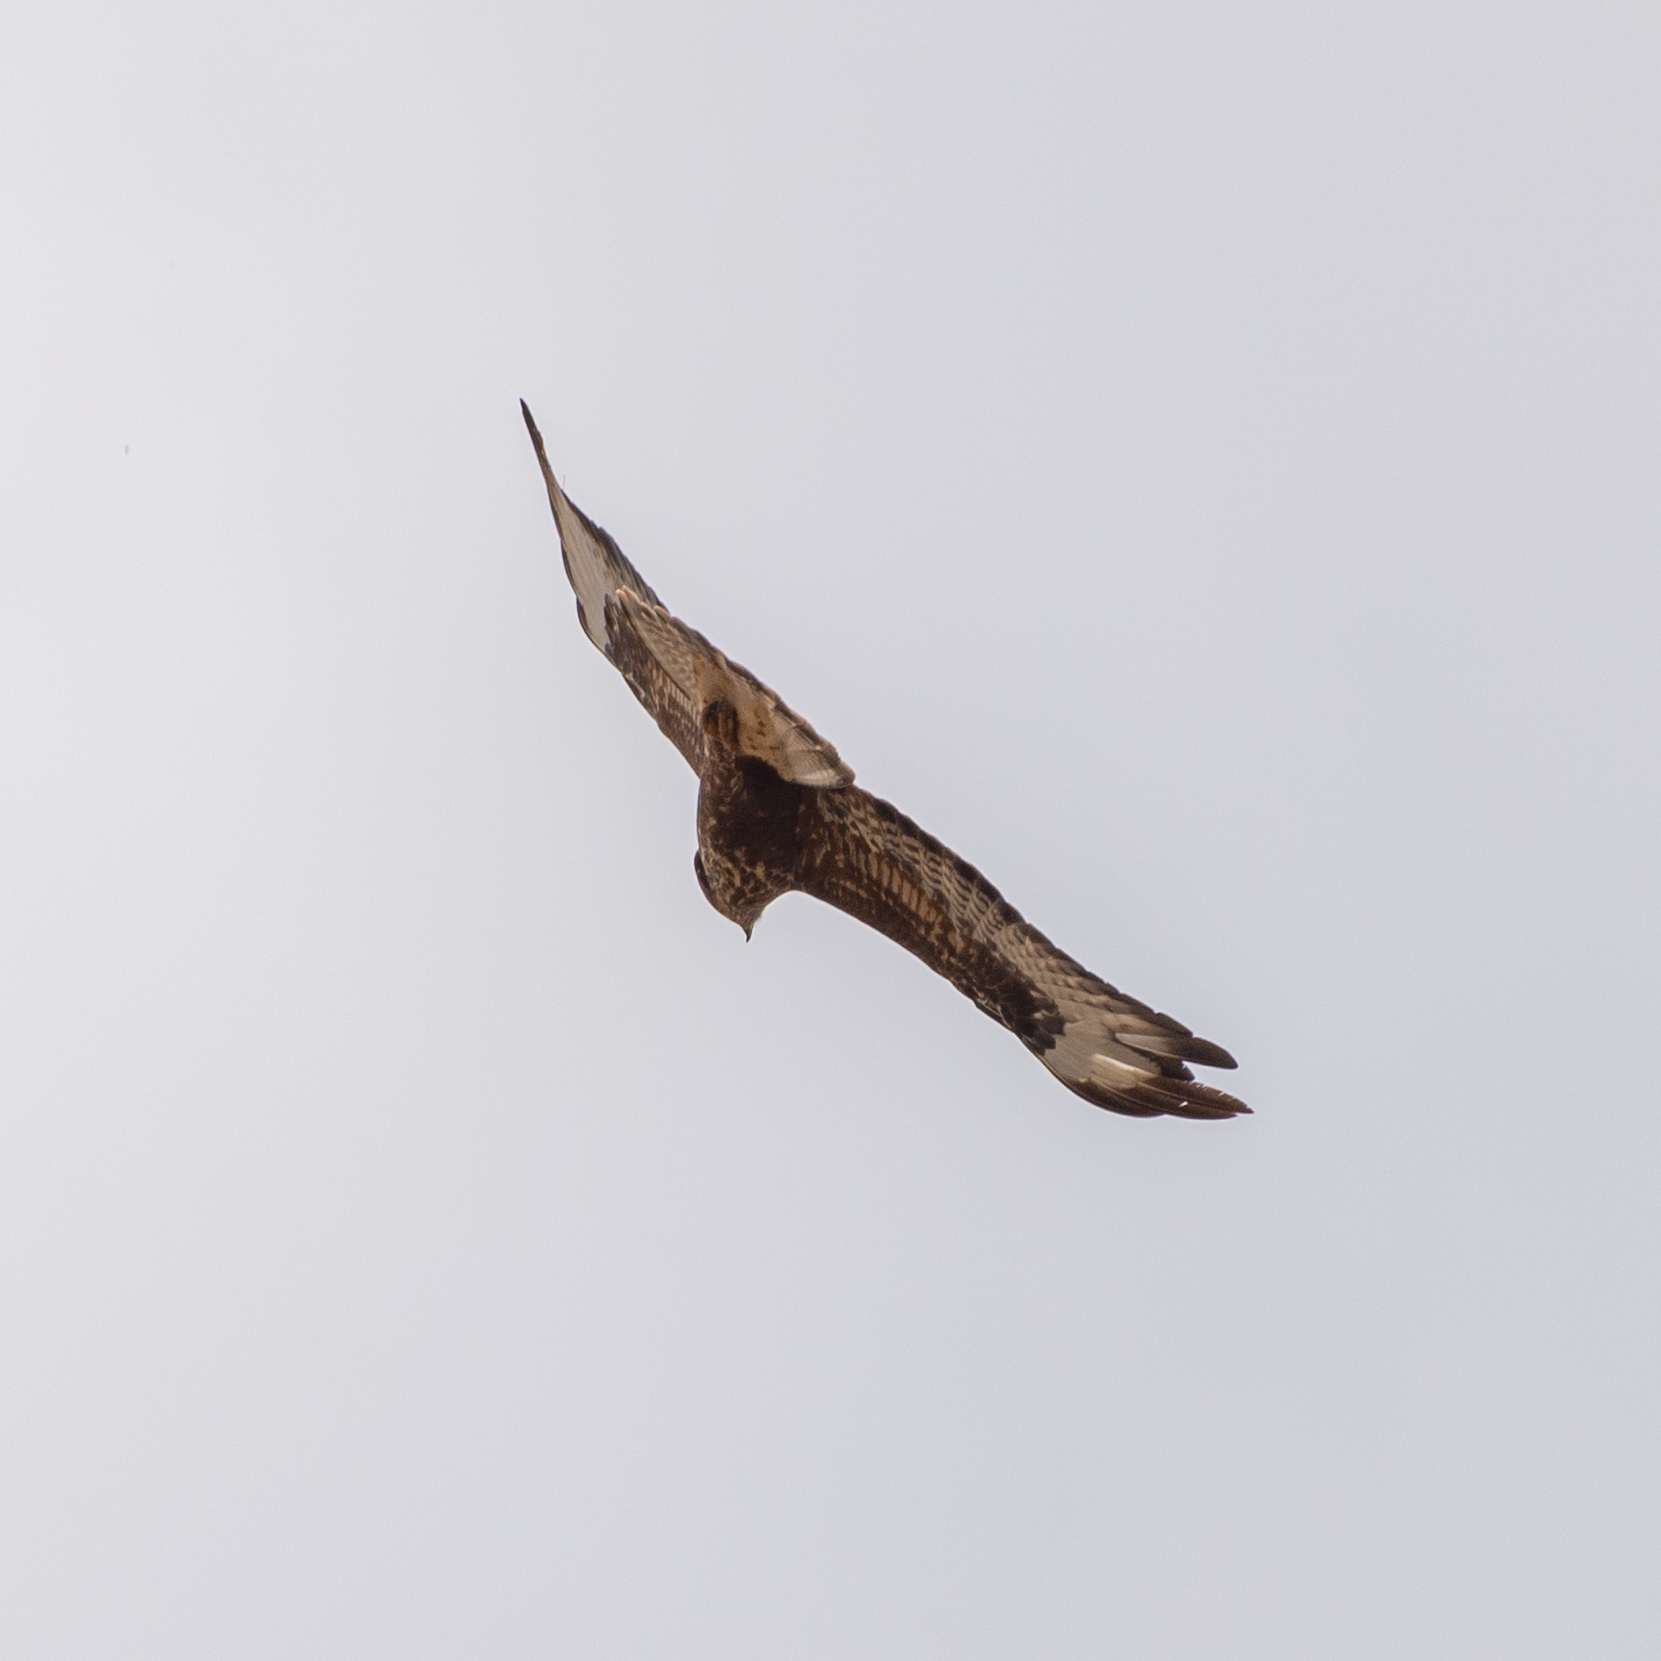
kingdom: Animalia
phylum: Chordata
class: Aves
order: Accipitriformes
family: Accipitridae
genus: Buteo
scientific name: Buteo buteo
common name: Common buzzard
